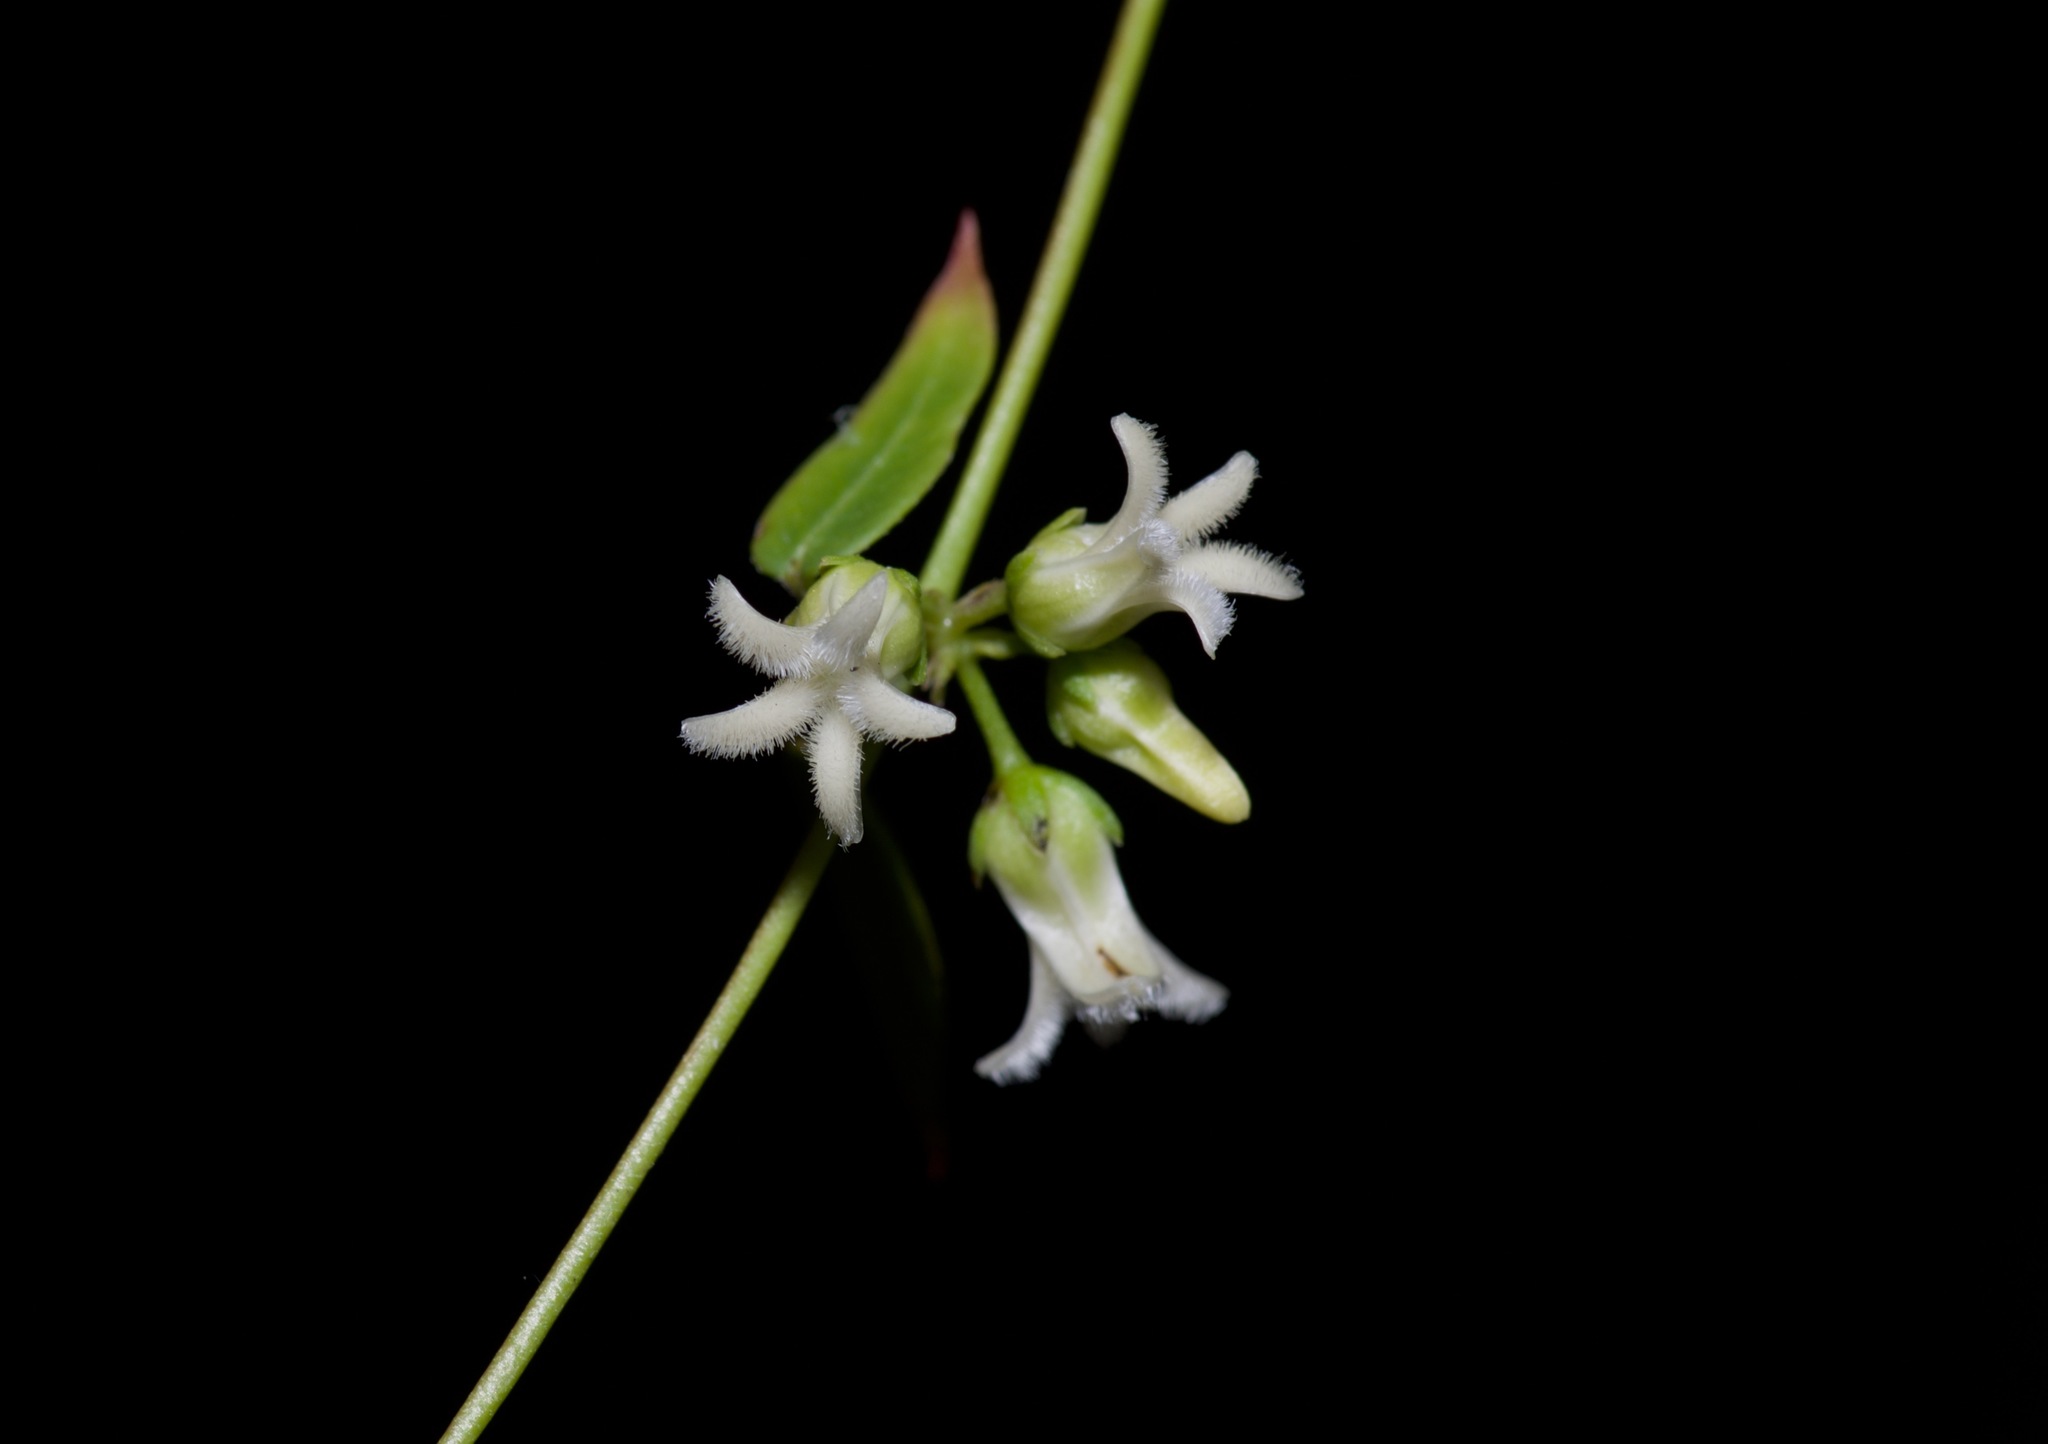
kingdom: Plantae
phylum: Tracheophyta
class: Magnoliopsida
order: Gentianales
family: Apocynaceae
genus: Metastelma
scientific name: Metastelma barbigerum
